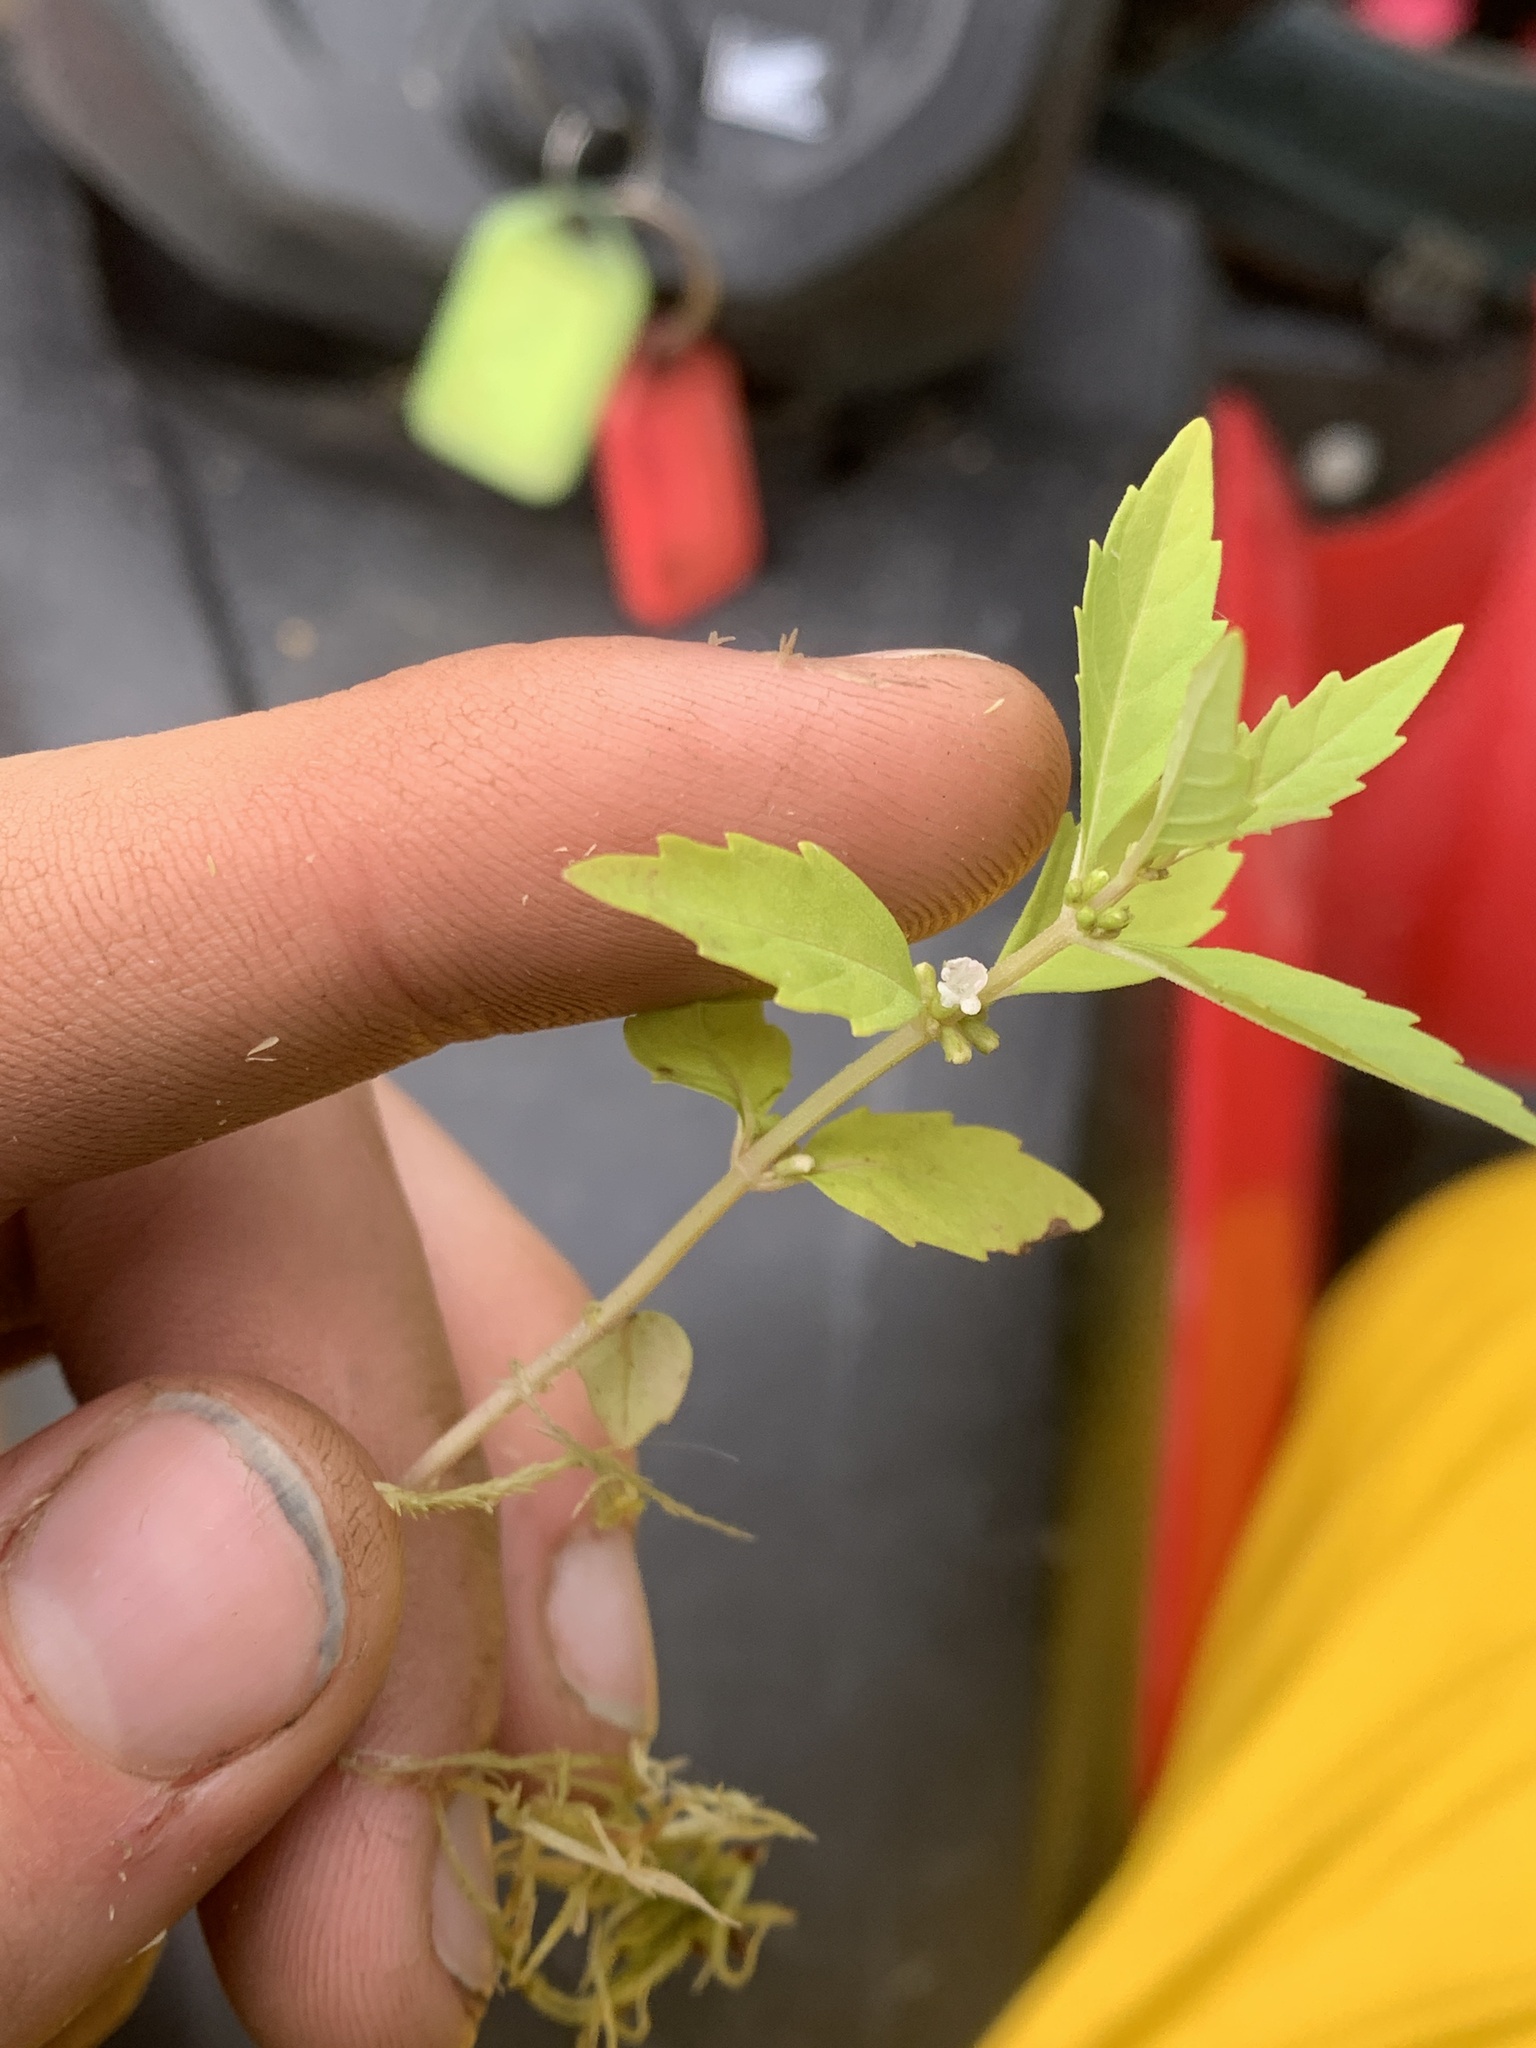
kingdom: Plantae
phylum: Tracheophyta
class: Magnoliopsida
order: Lamiales
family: Lamiaceae
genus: Lycopus
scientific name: Lycopus uniflorus
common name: Northern bugleweed
